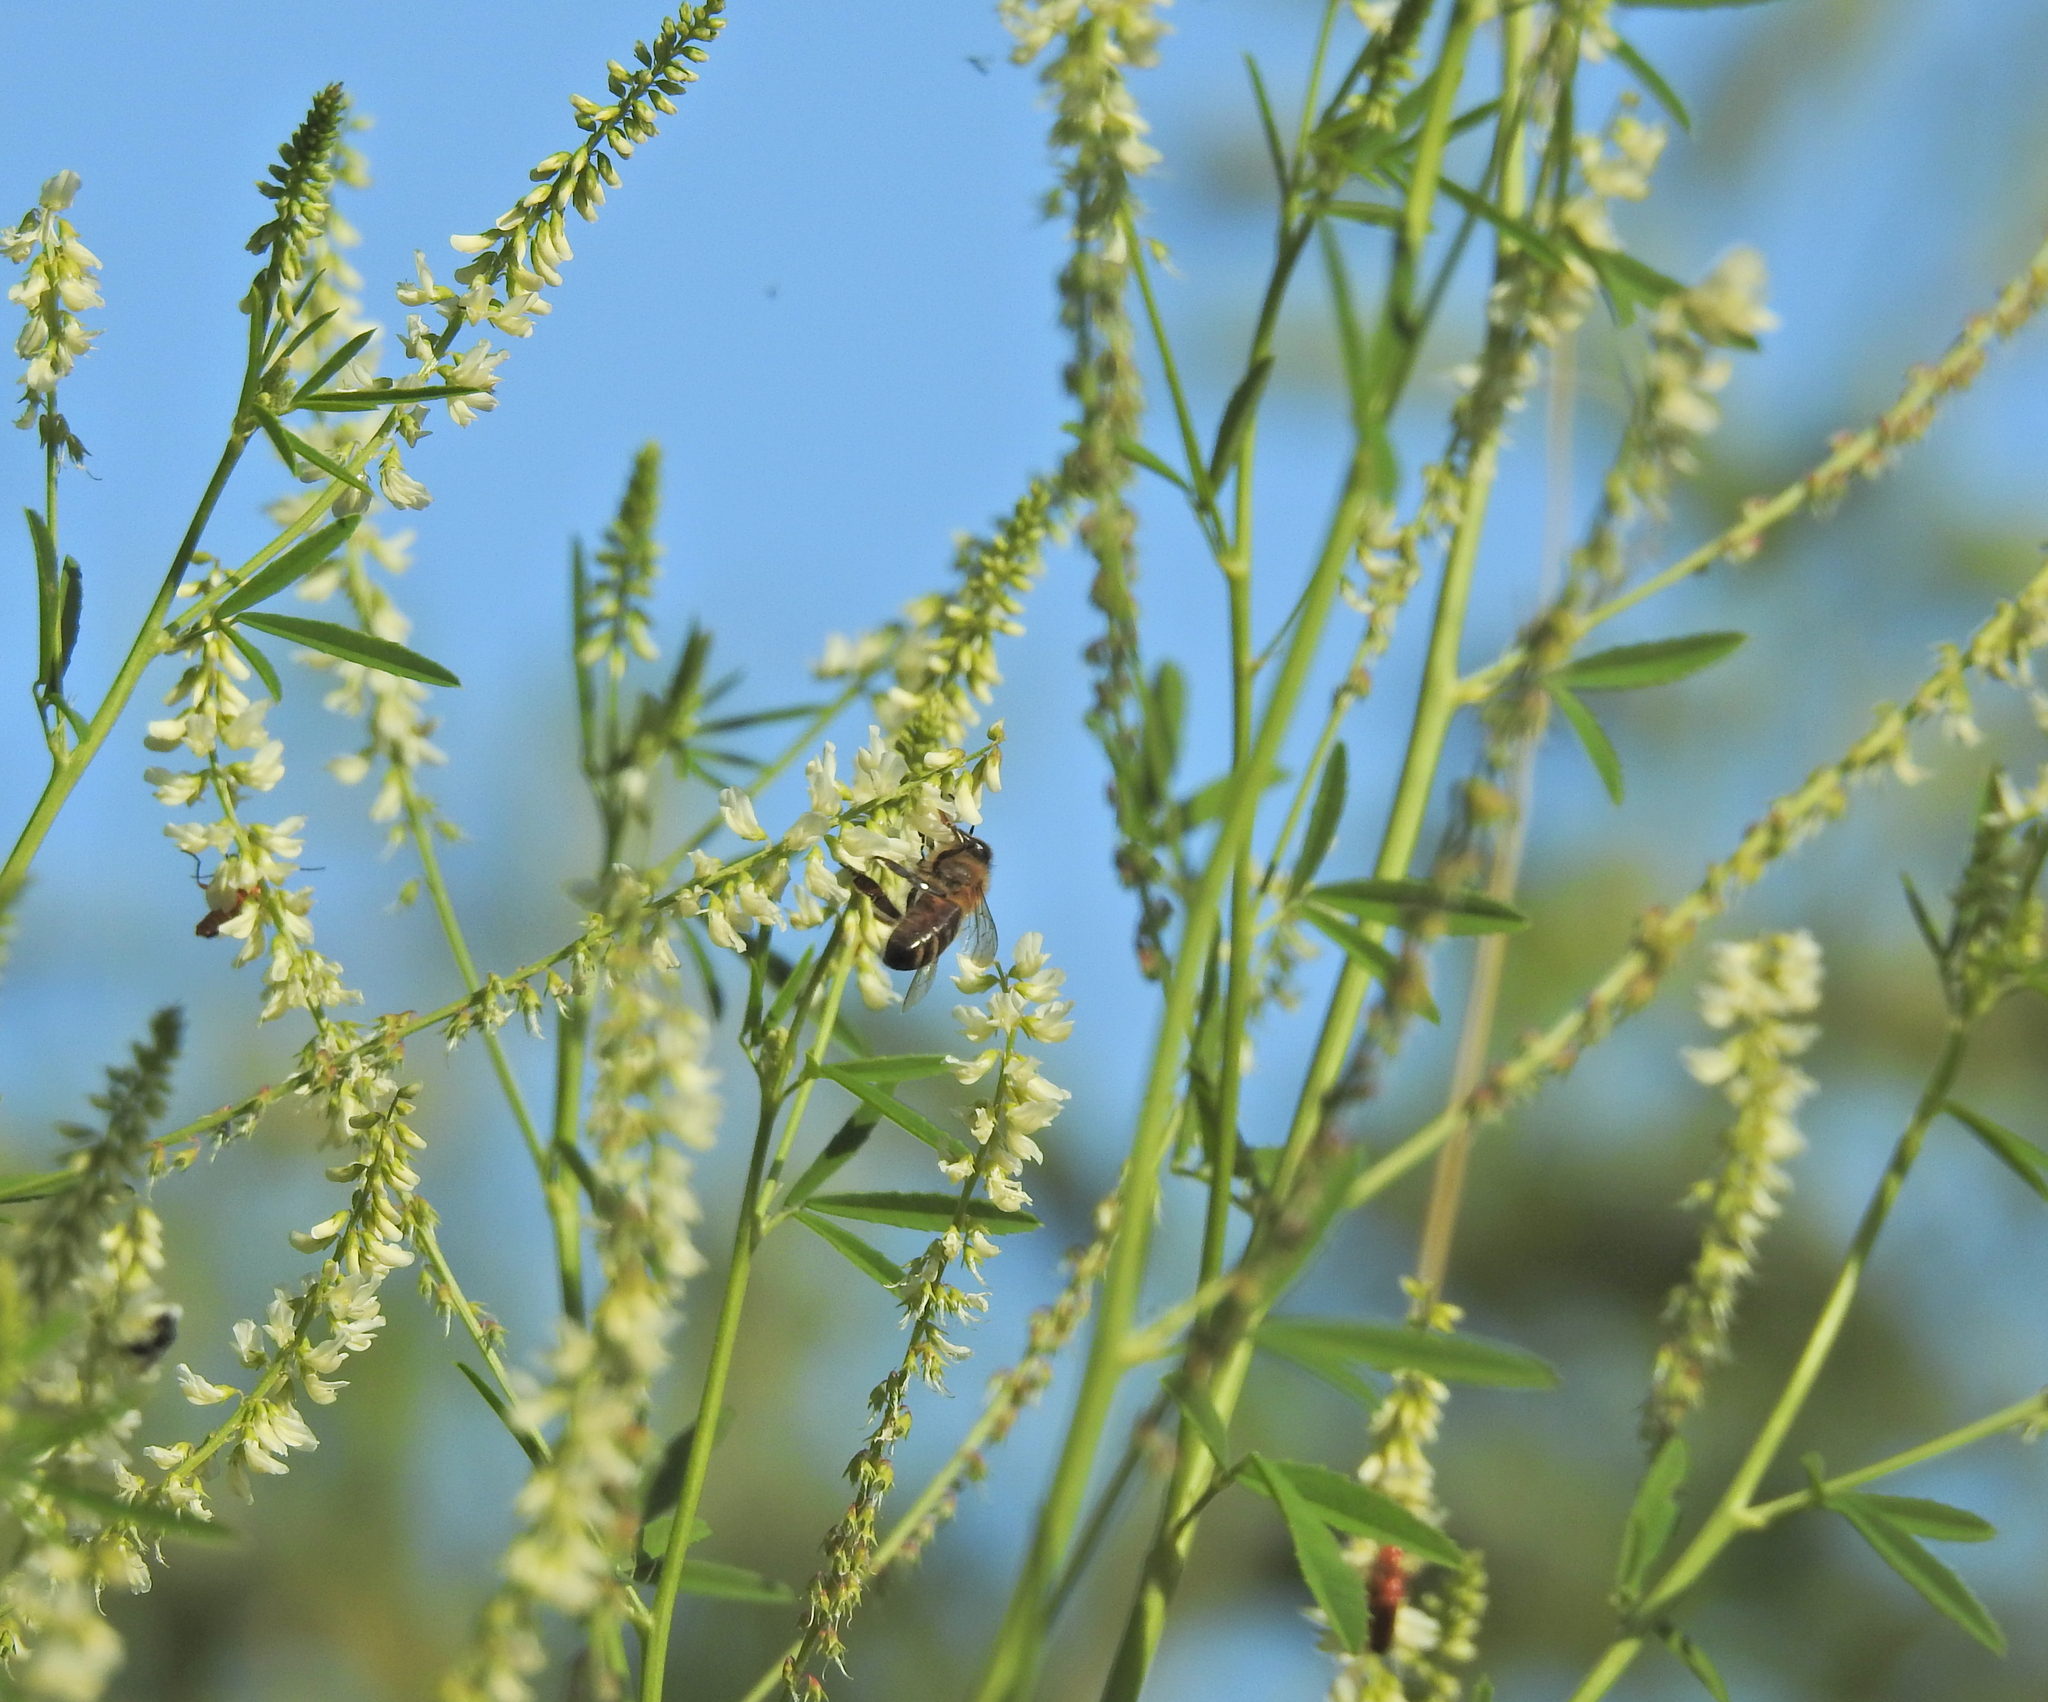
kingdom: Animalia
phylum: Arthropoda
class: Insecta
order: Hymenoptera
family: Apidae
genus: Apis
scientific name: Apis mellifera
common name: Honey bee
